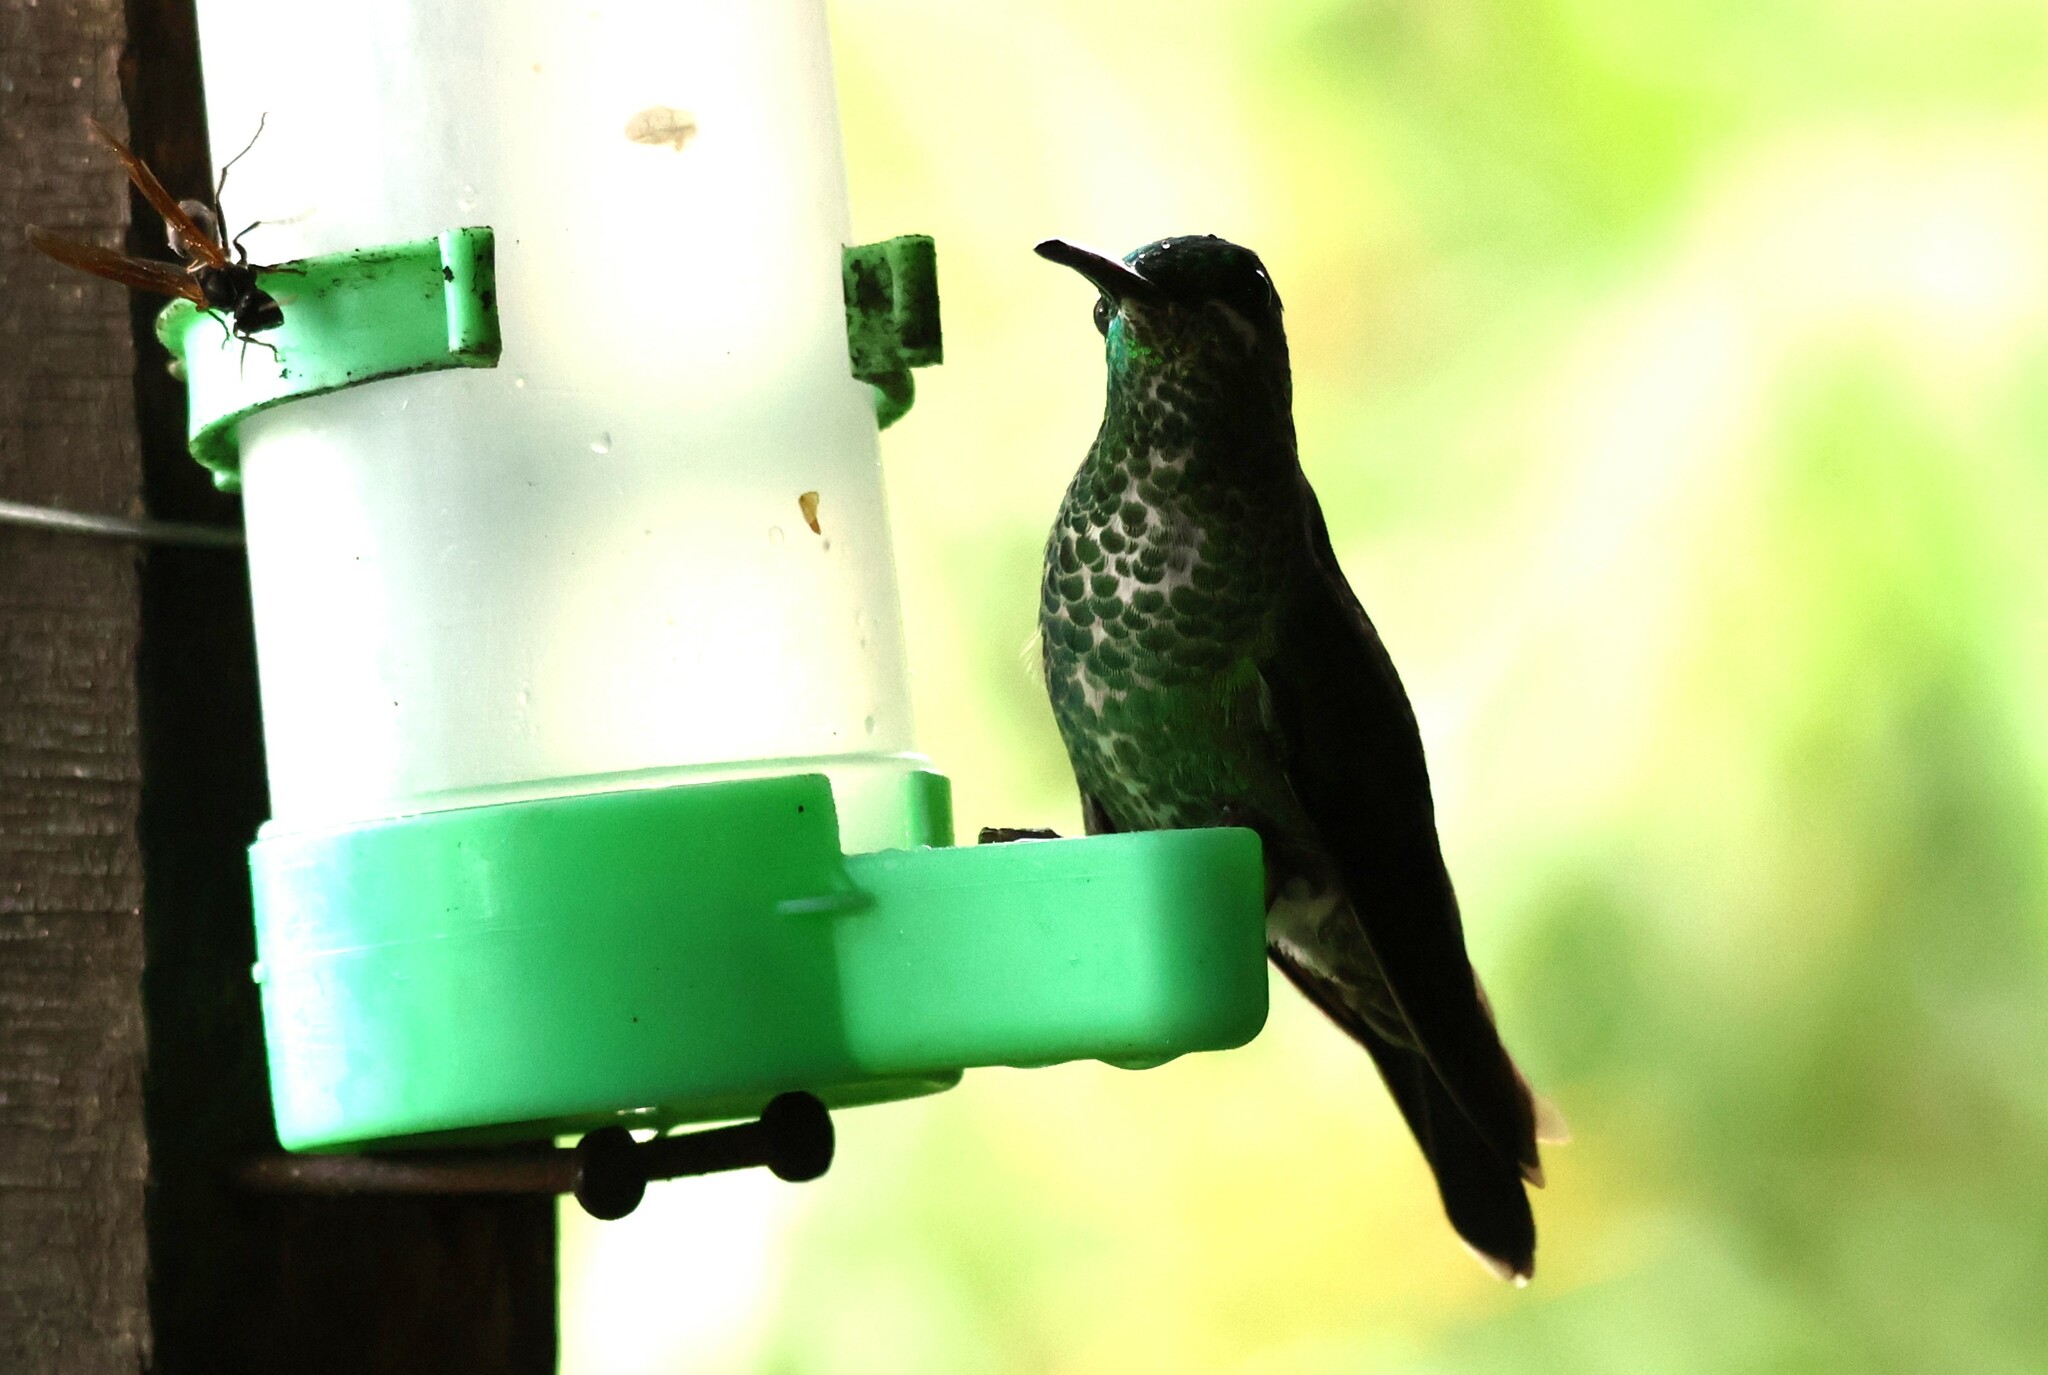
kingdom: Animalia
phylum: Chordata
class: Aves
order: Apodiformes
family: Trochilidae
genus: Heliodoxa
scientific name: Heliodoxa jacula
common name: Green-crowned brilliant
